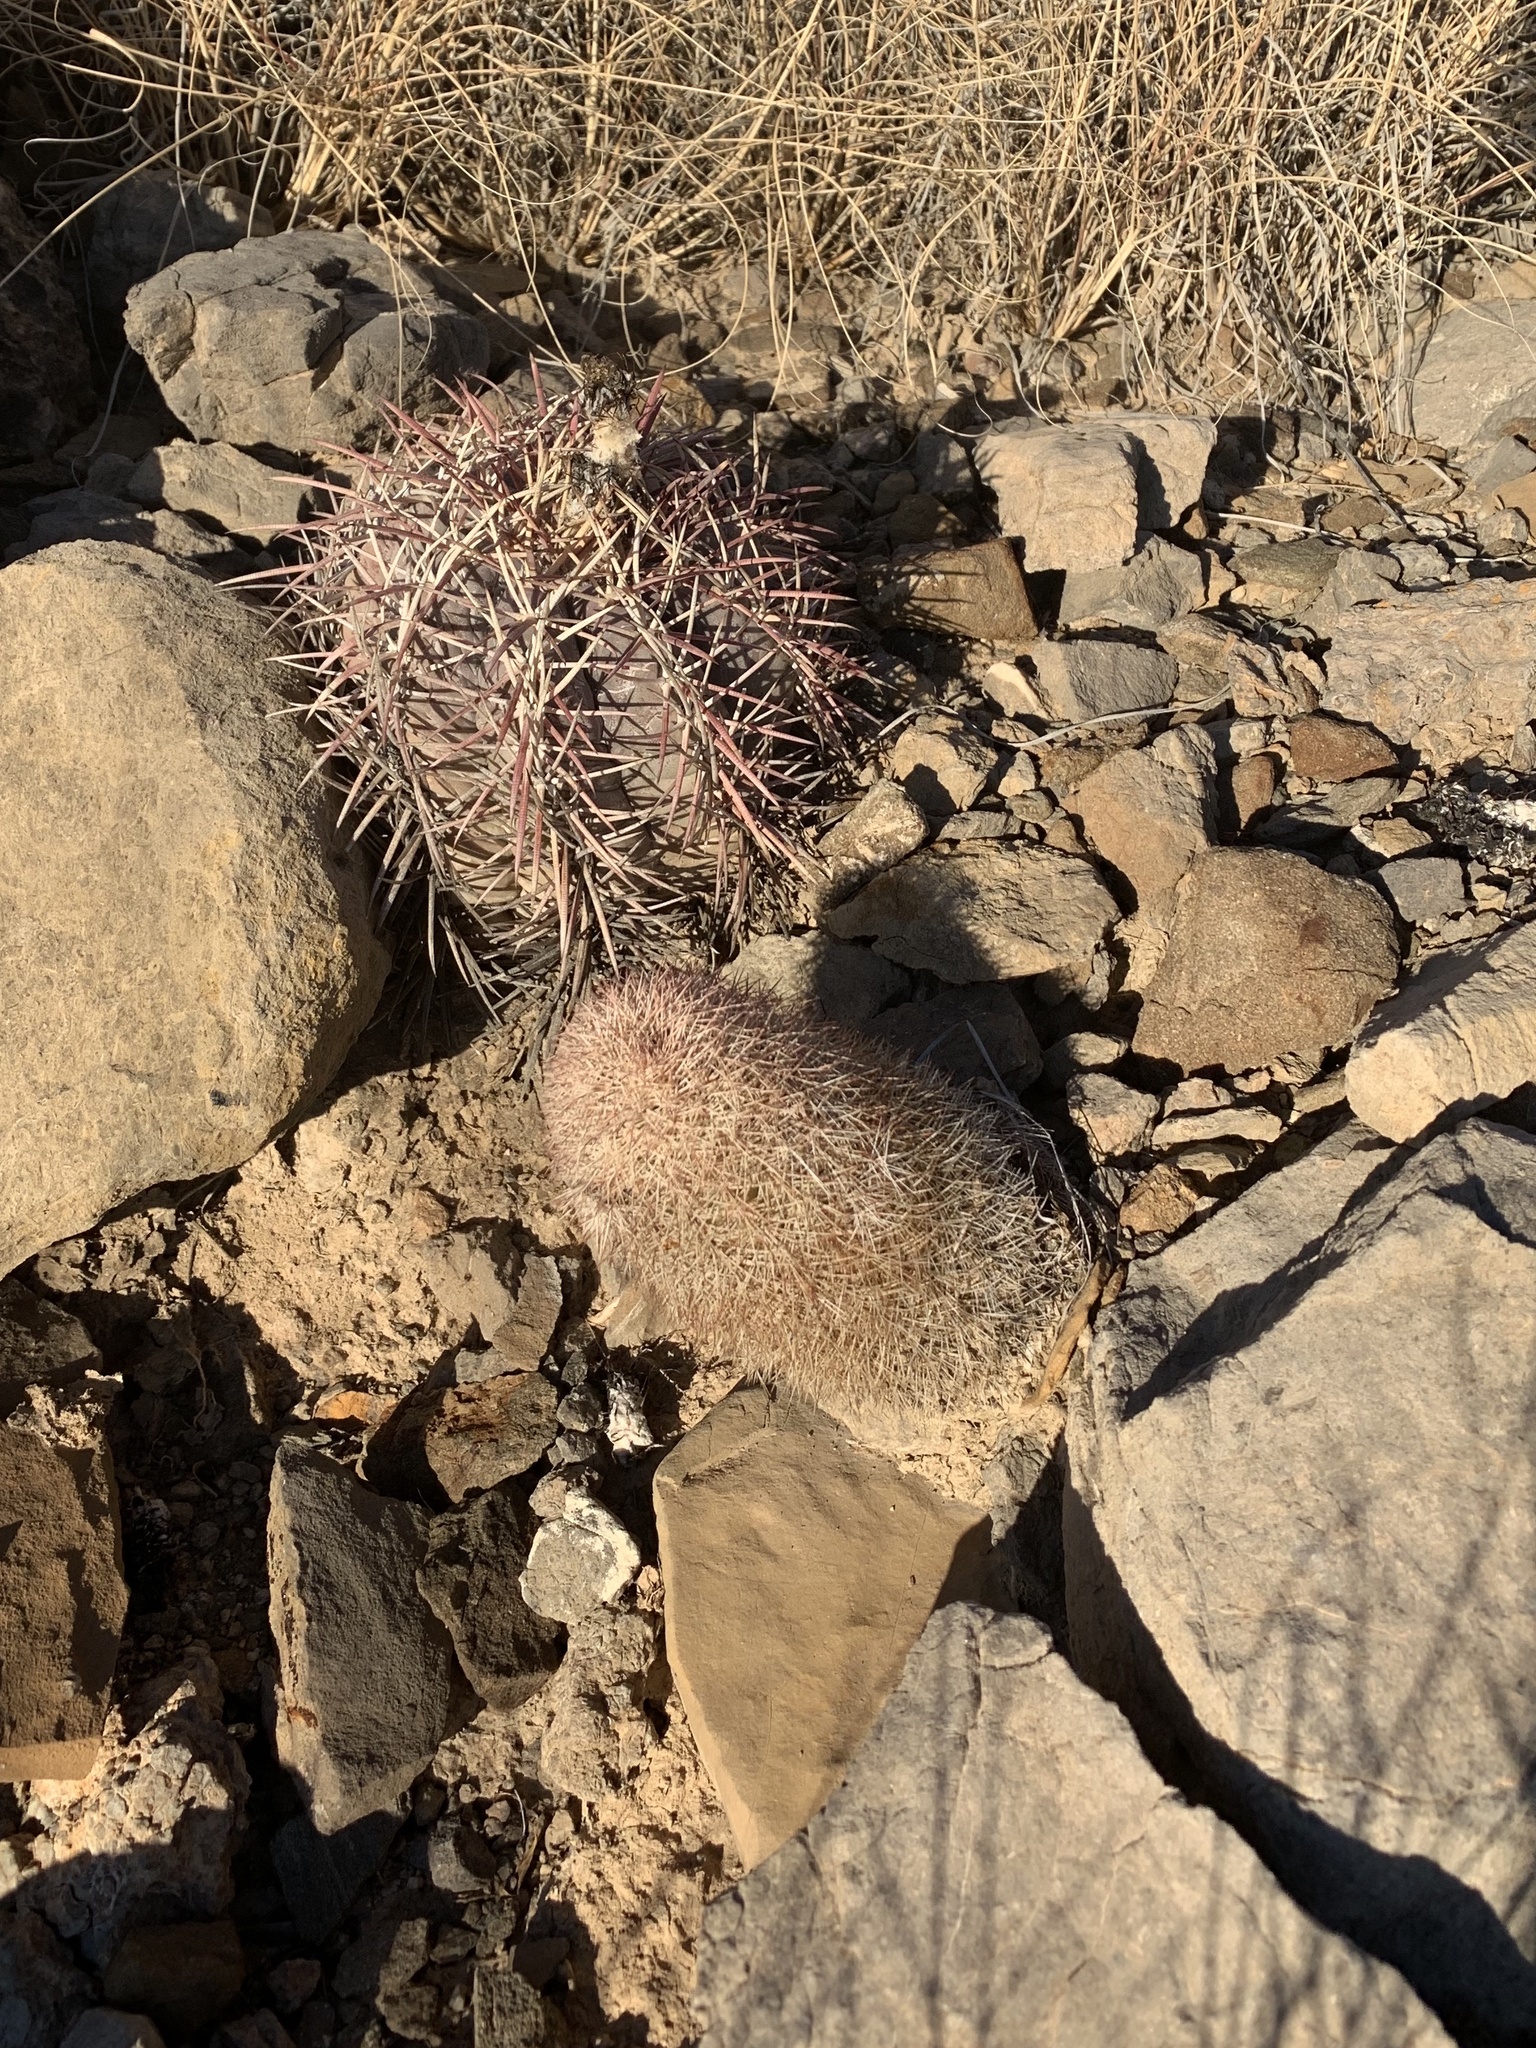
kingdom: Plantae
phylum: Tracheophyta
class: Magnoliopsida
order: Caryophyllales
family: Cactaceae
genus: Echinocereus
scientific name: Echinocereus dasyacanthus
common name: Spiny hedgehog cactus
